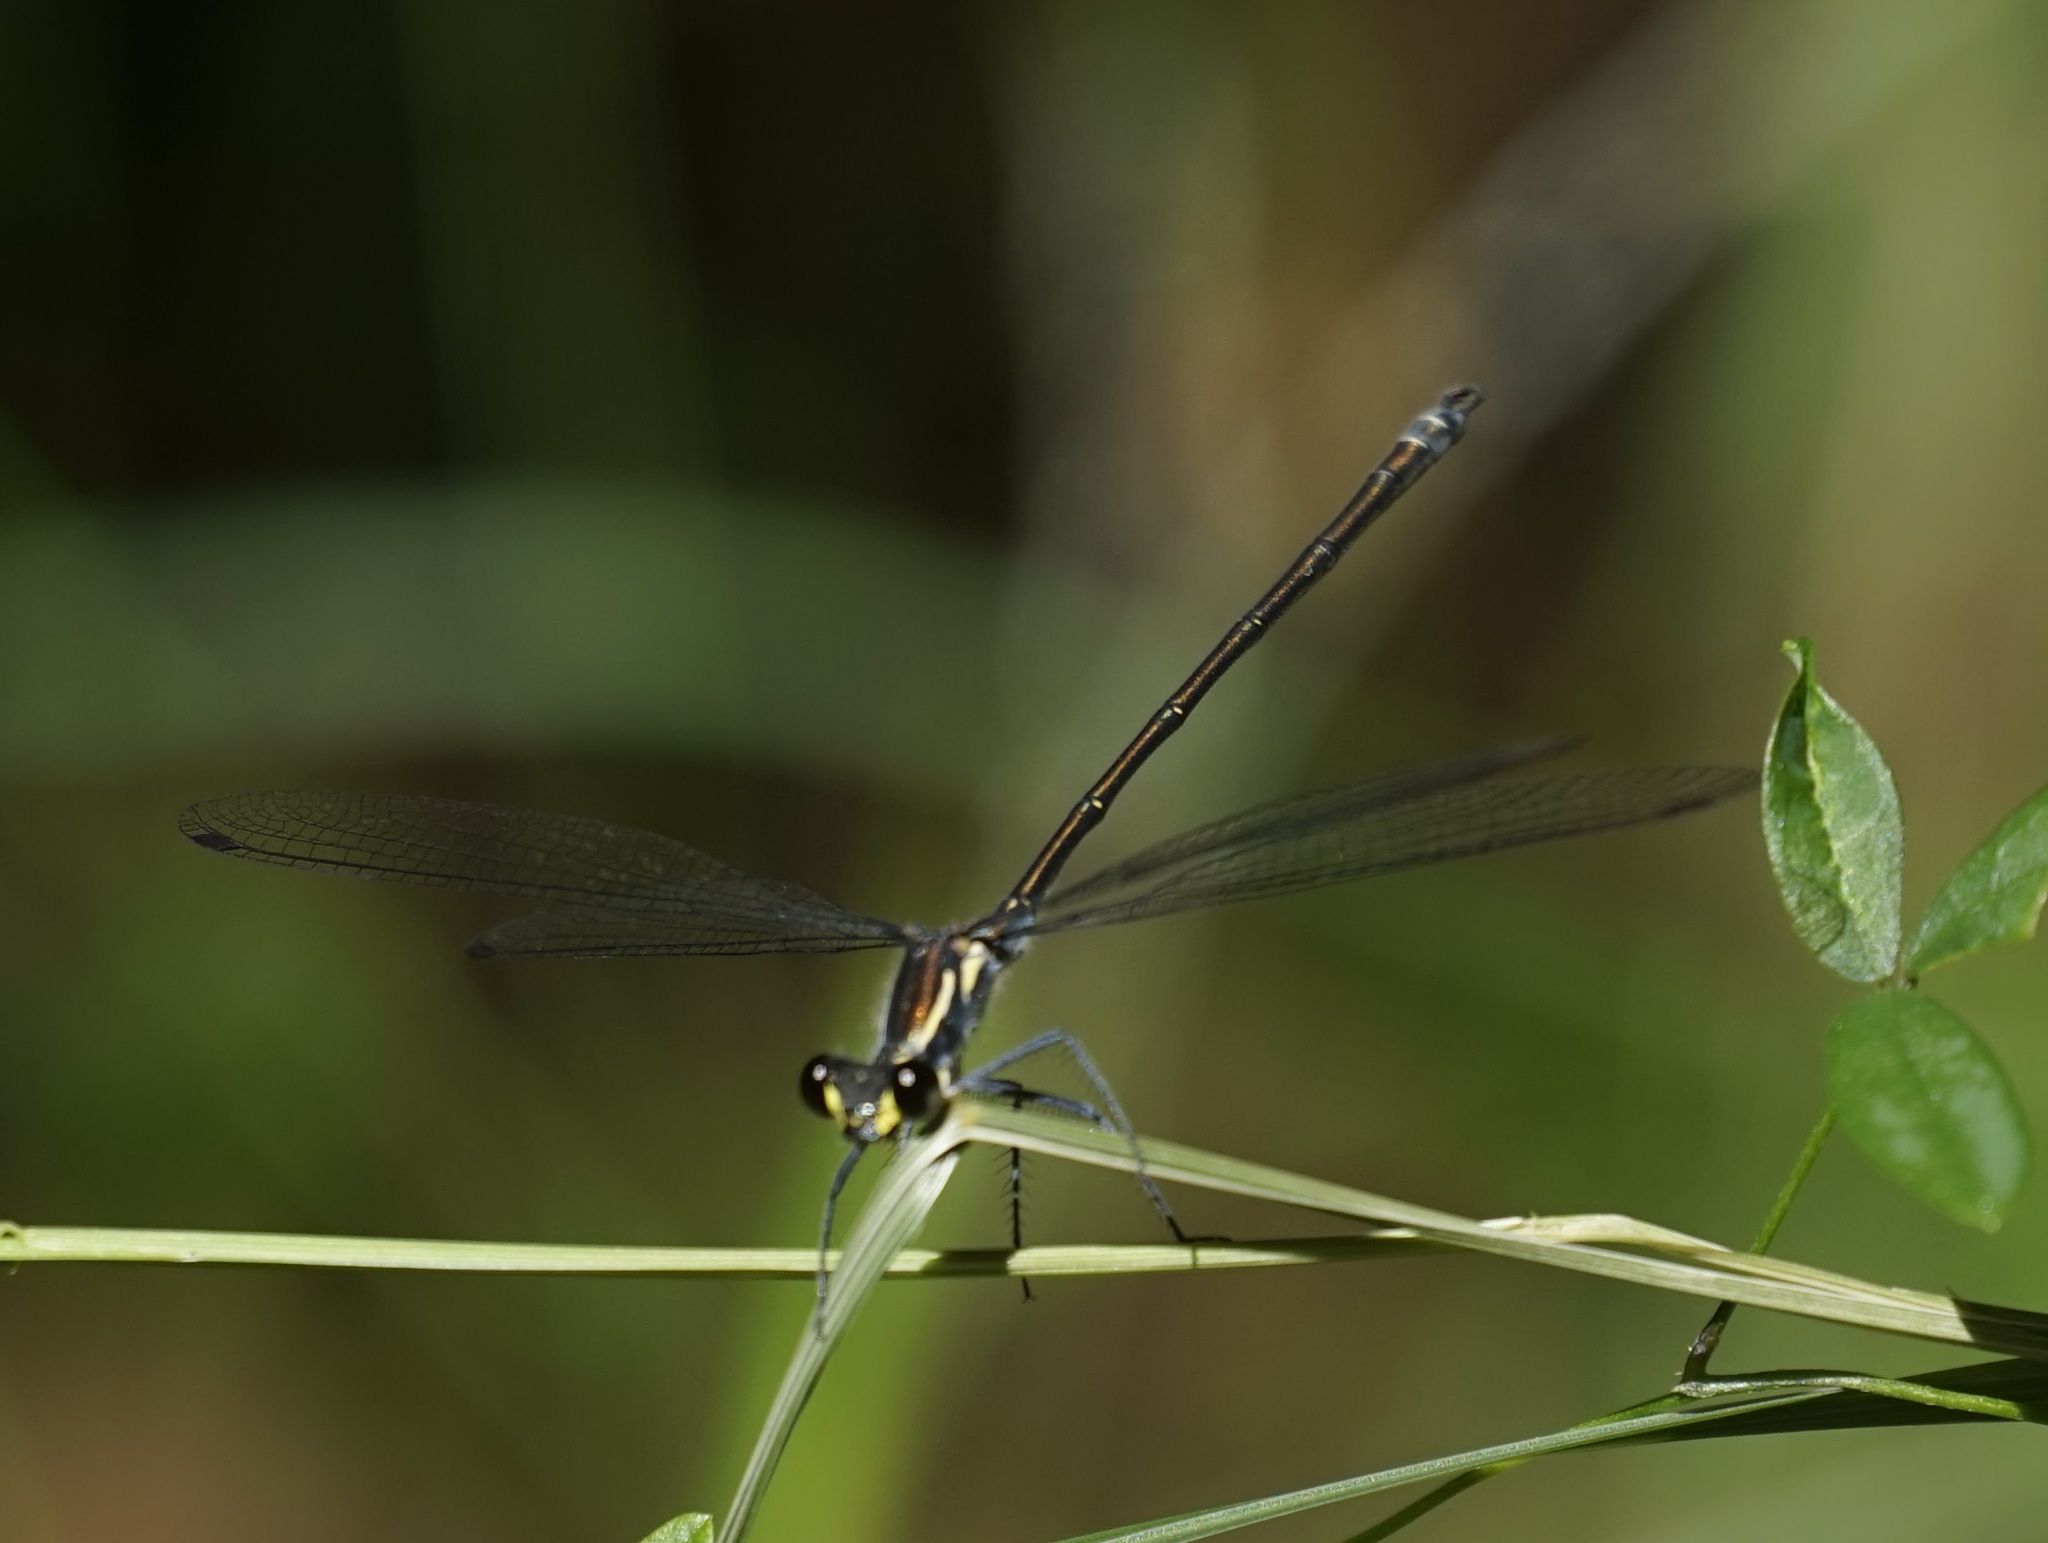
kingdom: Animalia
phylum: Arthropoda
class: Insecta
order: Odonata
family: Argiolestidae
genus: Austroargiolestes
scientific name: Austroargiolestes icteromelas
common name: Common flatwing
